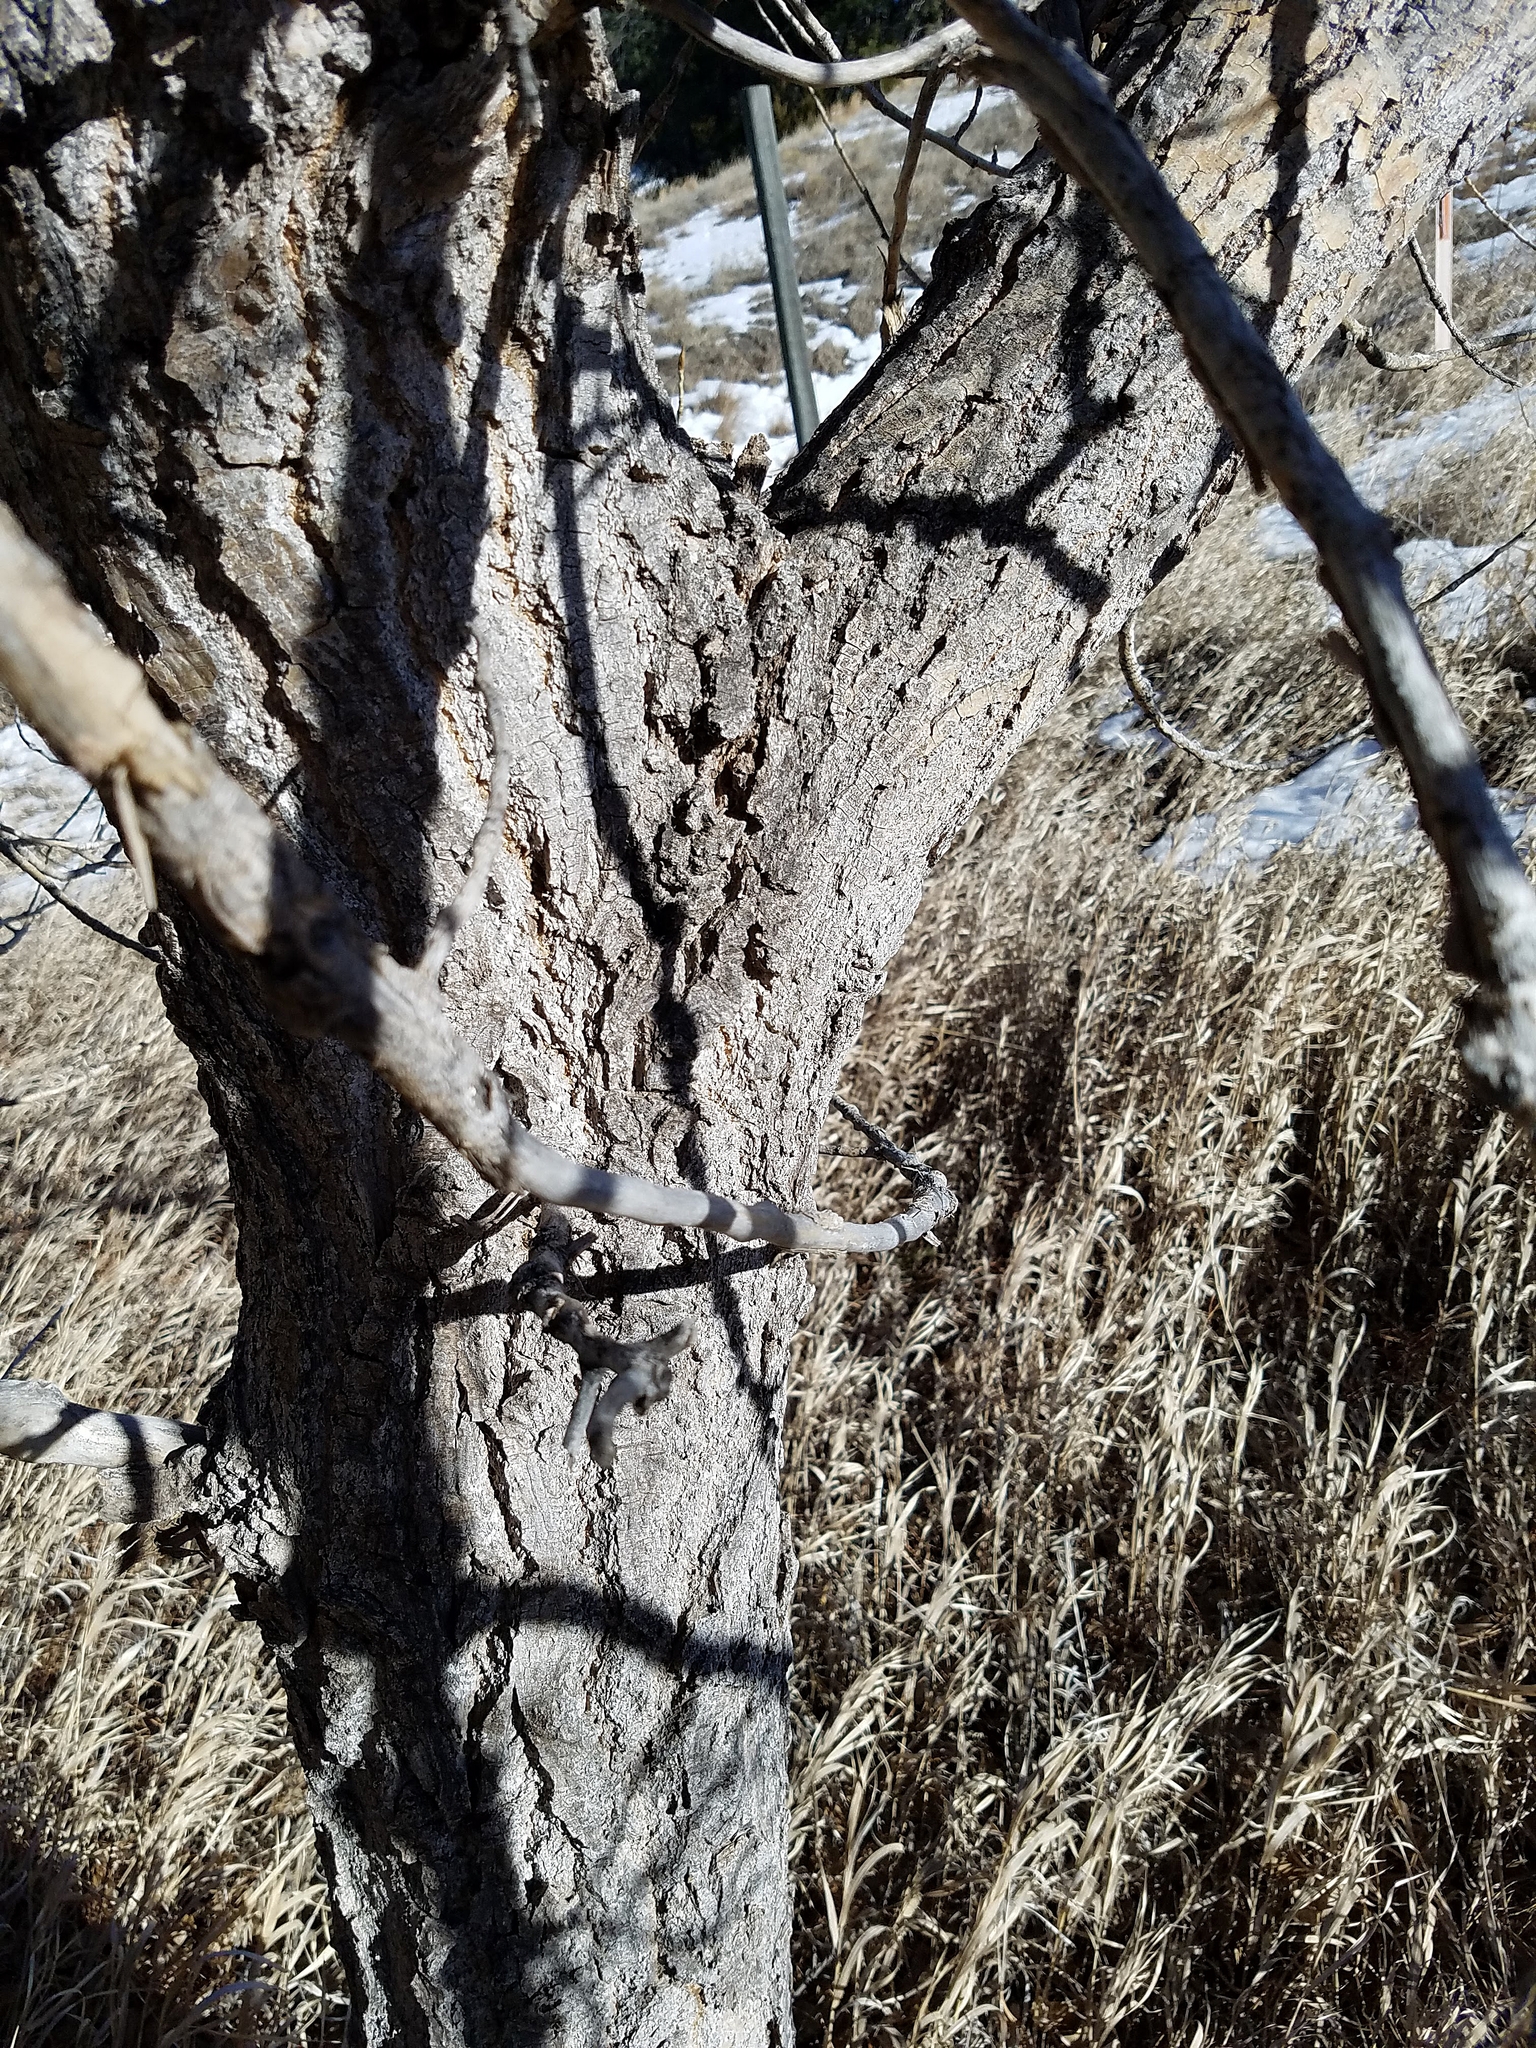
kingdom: Plantae
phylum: Tracheophyta
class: Magnoliopsida
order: Malpighiales
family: Salicaceae
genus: Populus
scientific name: Populus deltoides
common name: Eastern cottonwood
